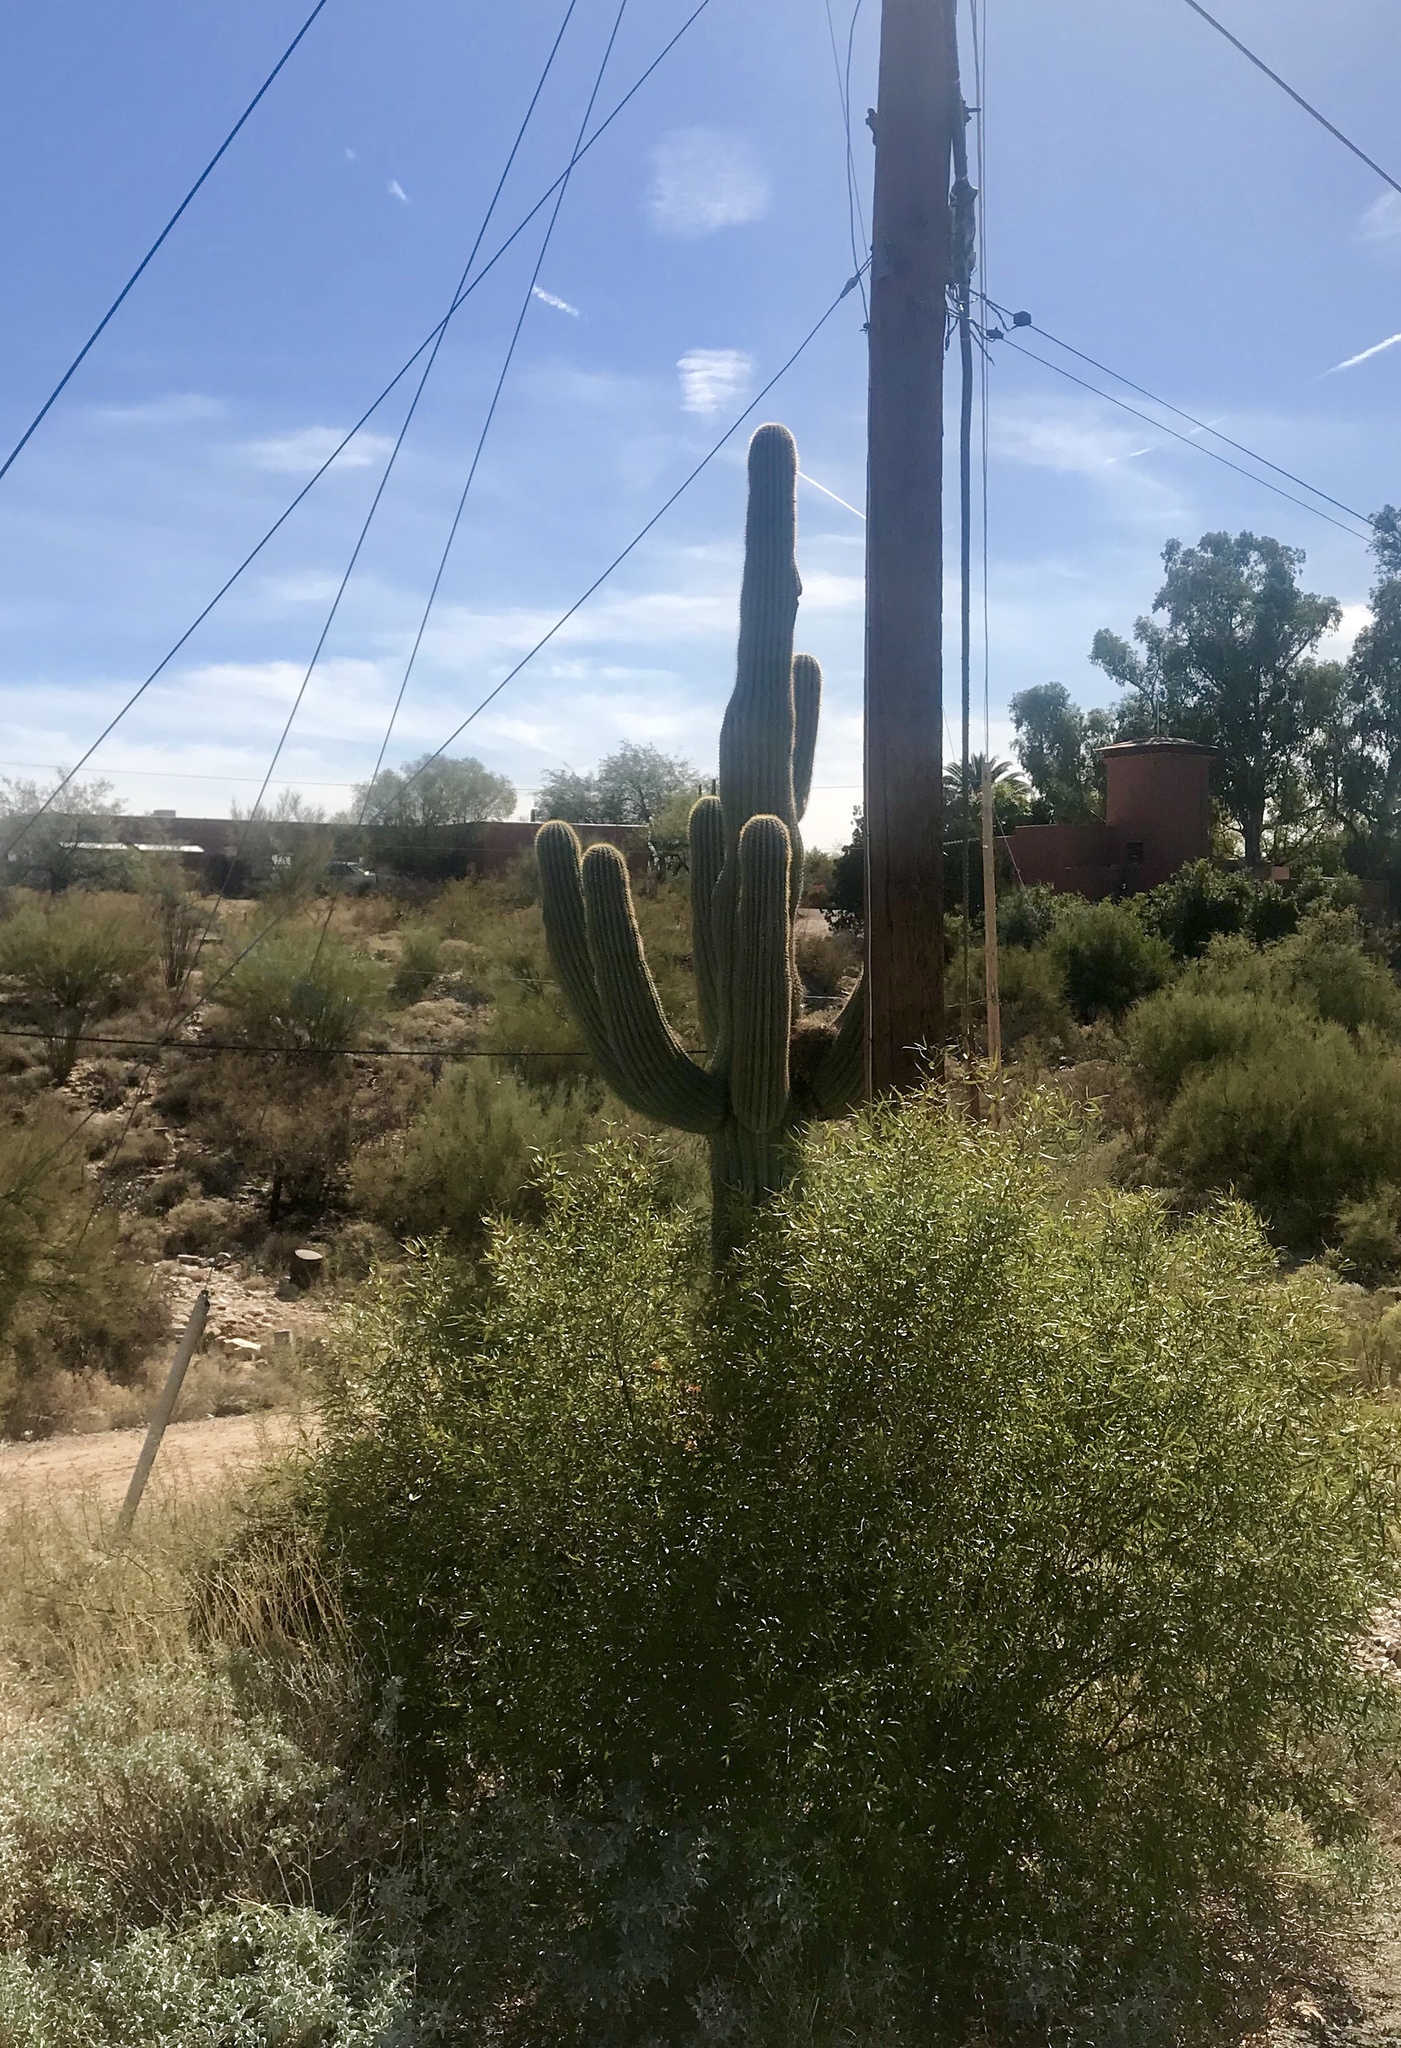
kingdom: Plantae
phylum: Tracheophyta
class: Magnoliopsida
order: Caryophyllales
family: Cactaceae
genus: Carnegiea
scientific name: Carnegiea gigantea
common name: Saguaro
